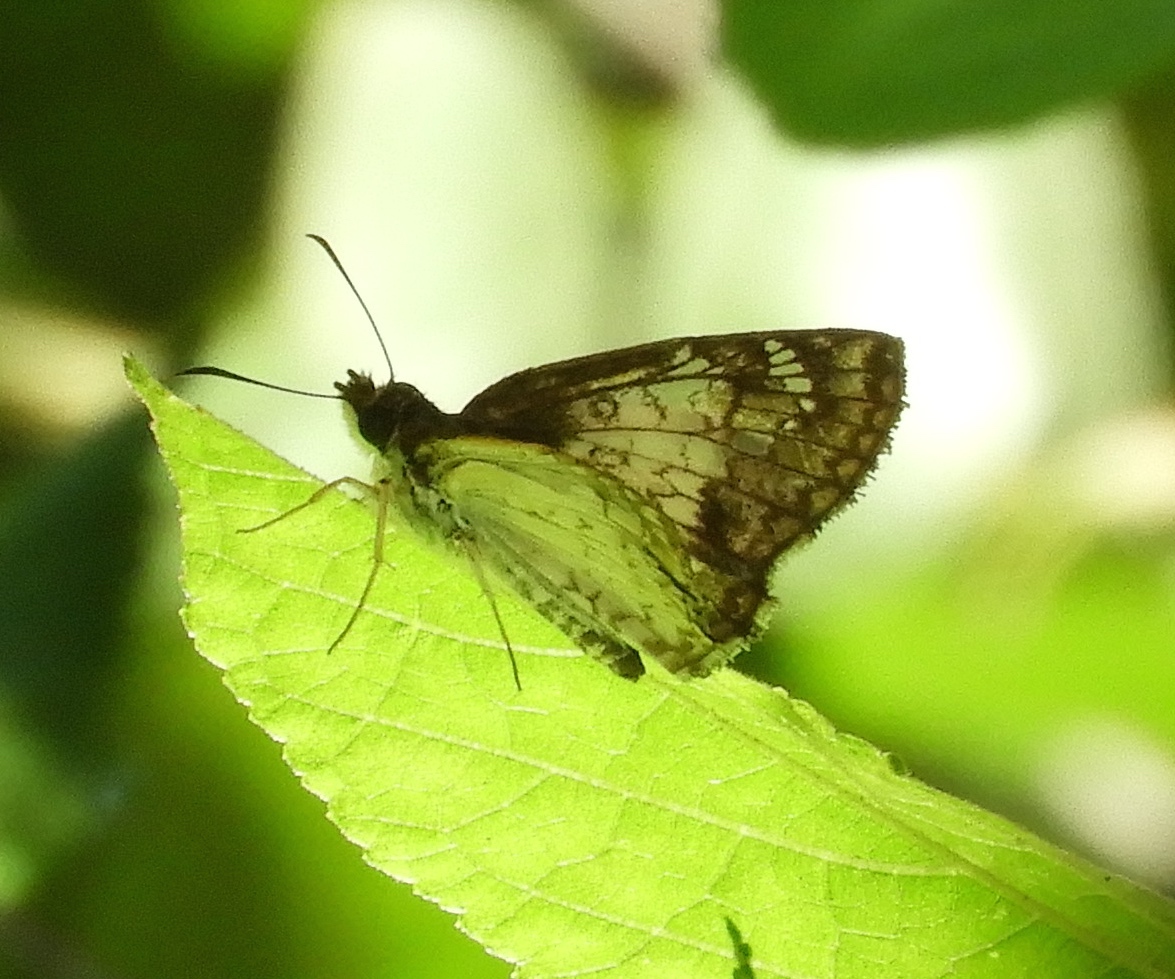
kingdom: Animalia
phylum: Arthropoda
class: Insecta
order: Lepidoptera
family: Hesperiidae
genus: Antigonus
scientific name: Antigonus emorsa
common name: White spurwing
